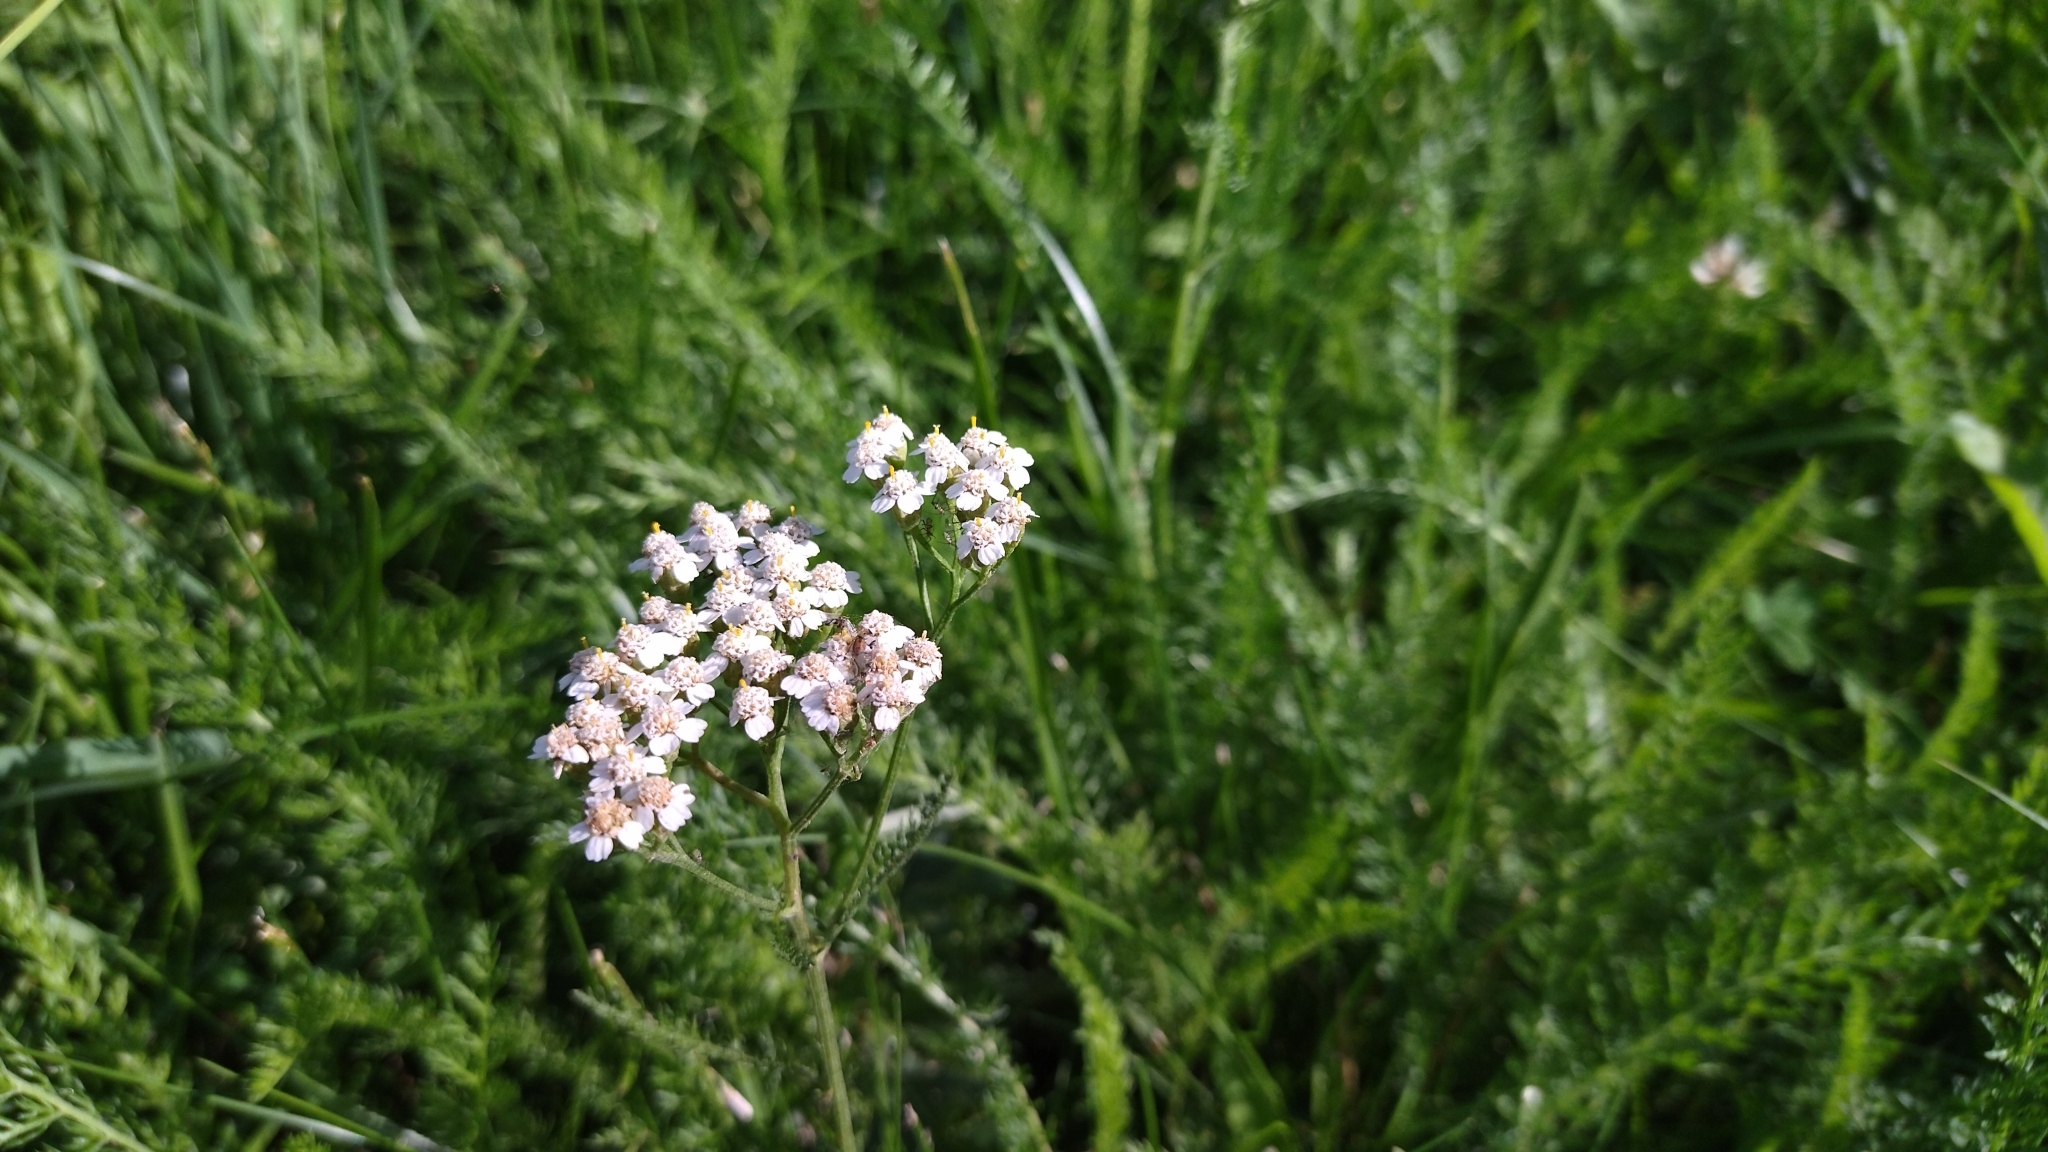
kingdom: Plantae
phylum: Tracheophyta
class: Magnoliopsida
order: Asterales
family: Asteraceae
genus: Achillea
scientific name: Achillea millefolium
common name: Yarrow
